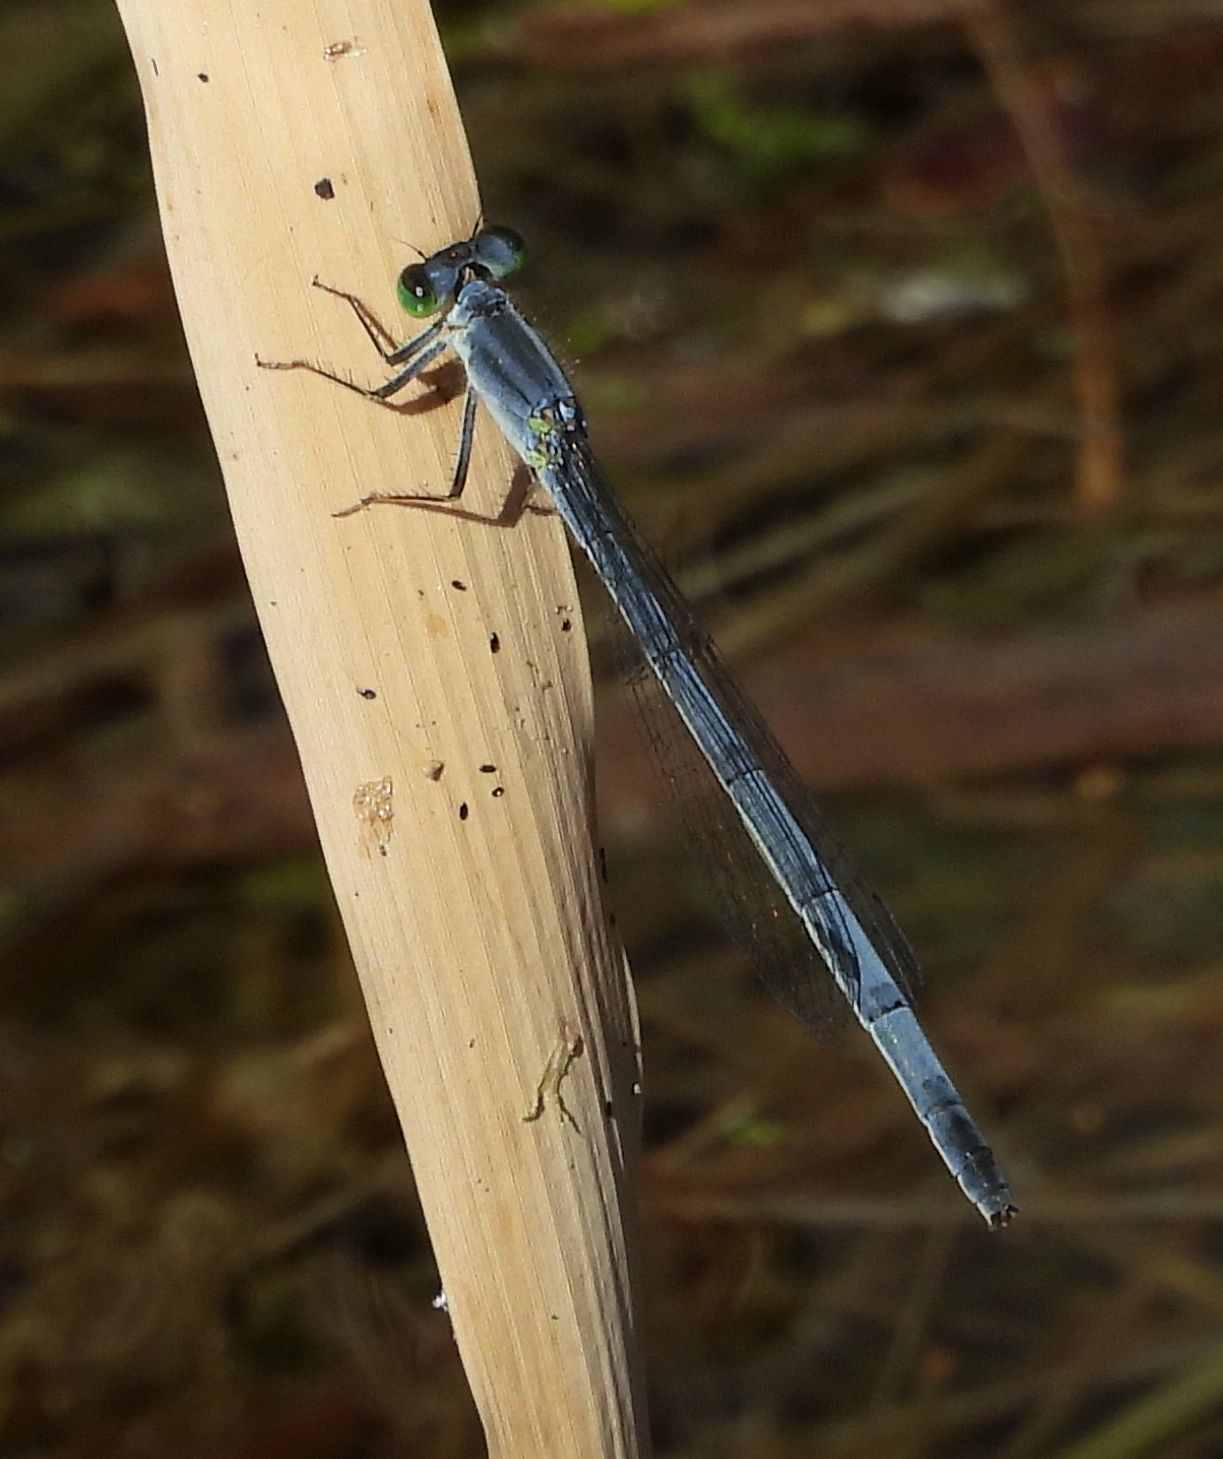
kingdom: Animalia
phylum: Arthropoda
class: Insecta
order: Odonata
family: Coenagrionidae
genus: Ischnura
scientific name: Ischnura verticalis
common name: Eastern forktail
